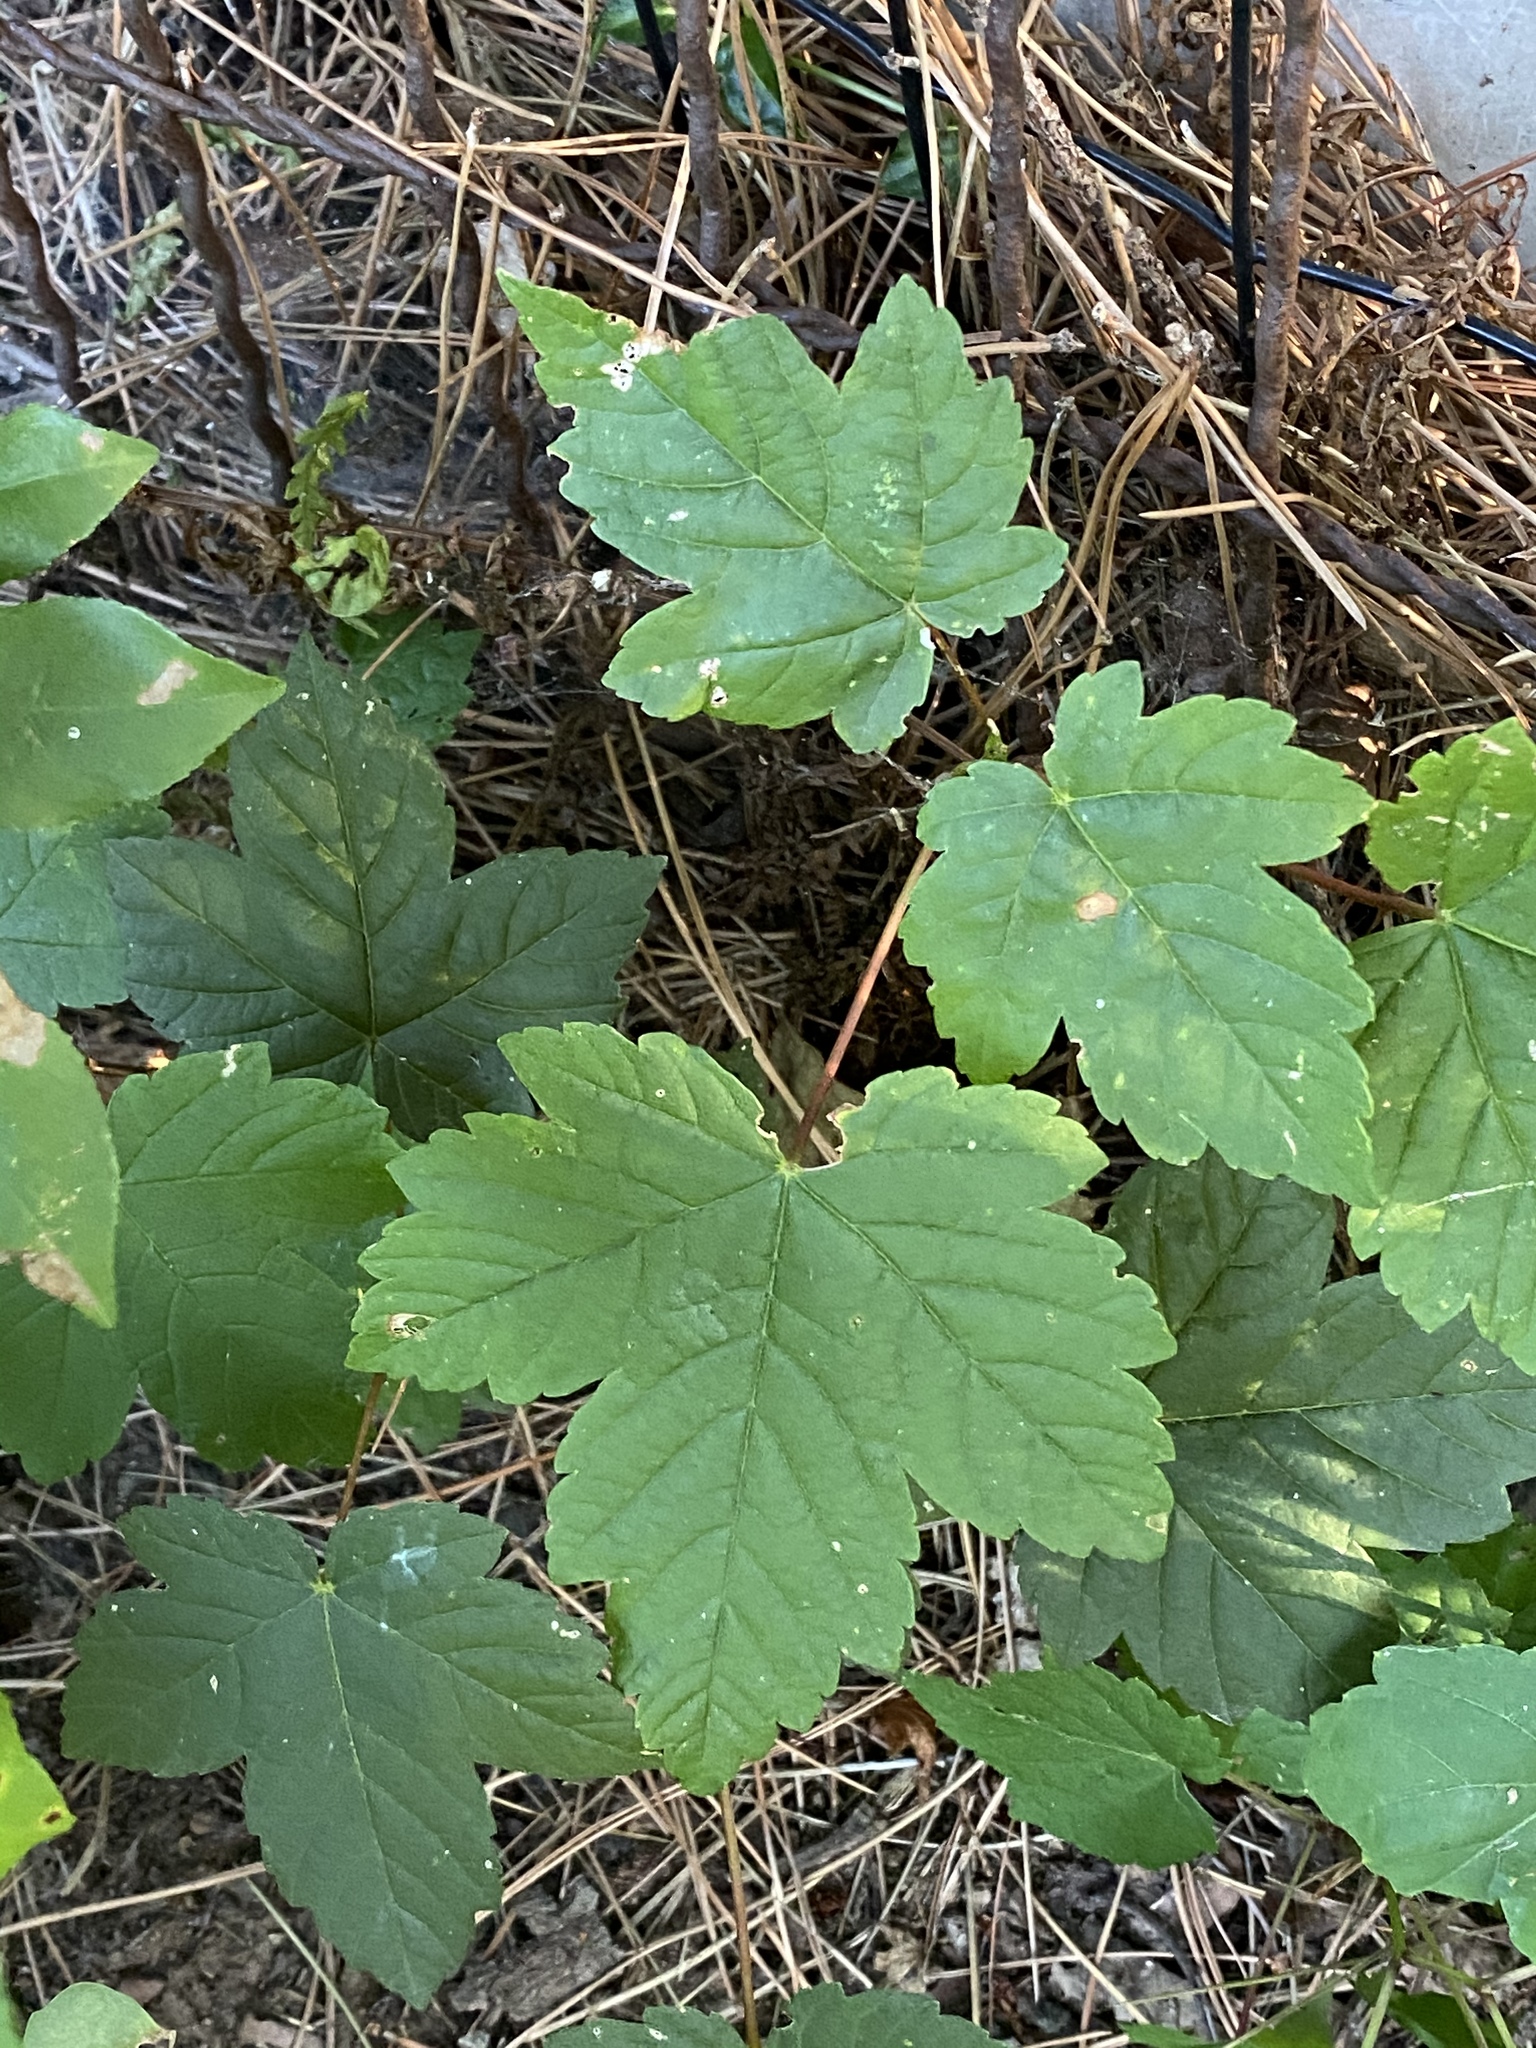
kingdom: Plantae
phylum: Tracheophyta
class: Magnoliopsida
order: Sapindales
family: Sapindaceae
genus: Acer
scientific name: Acer pseudoplatanus
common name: Sycamore
